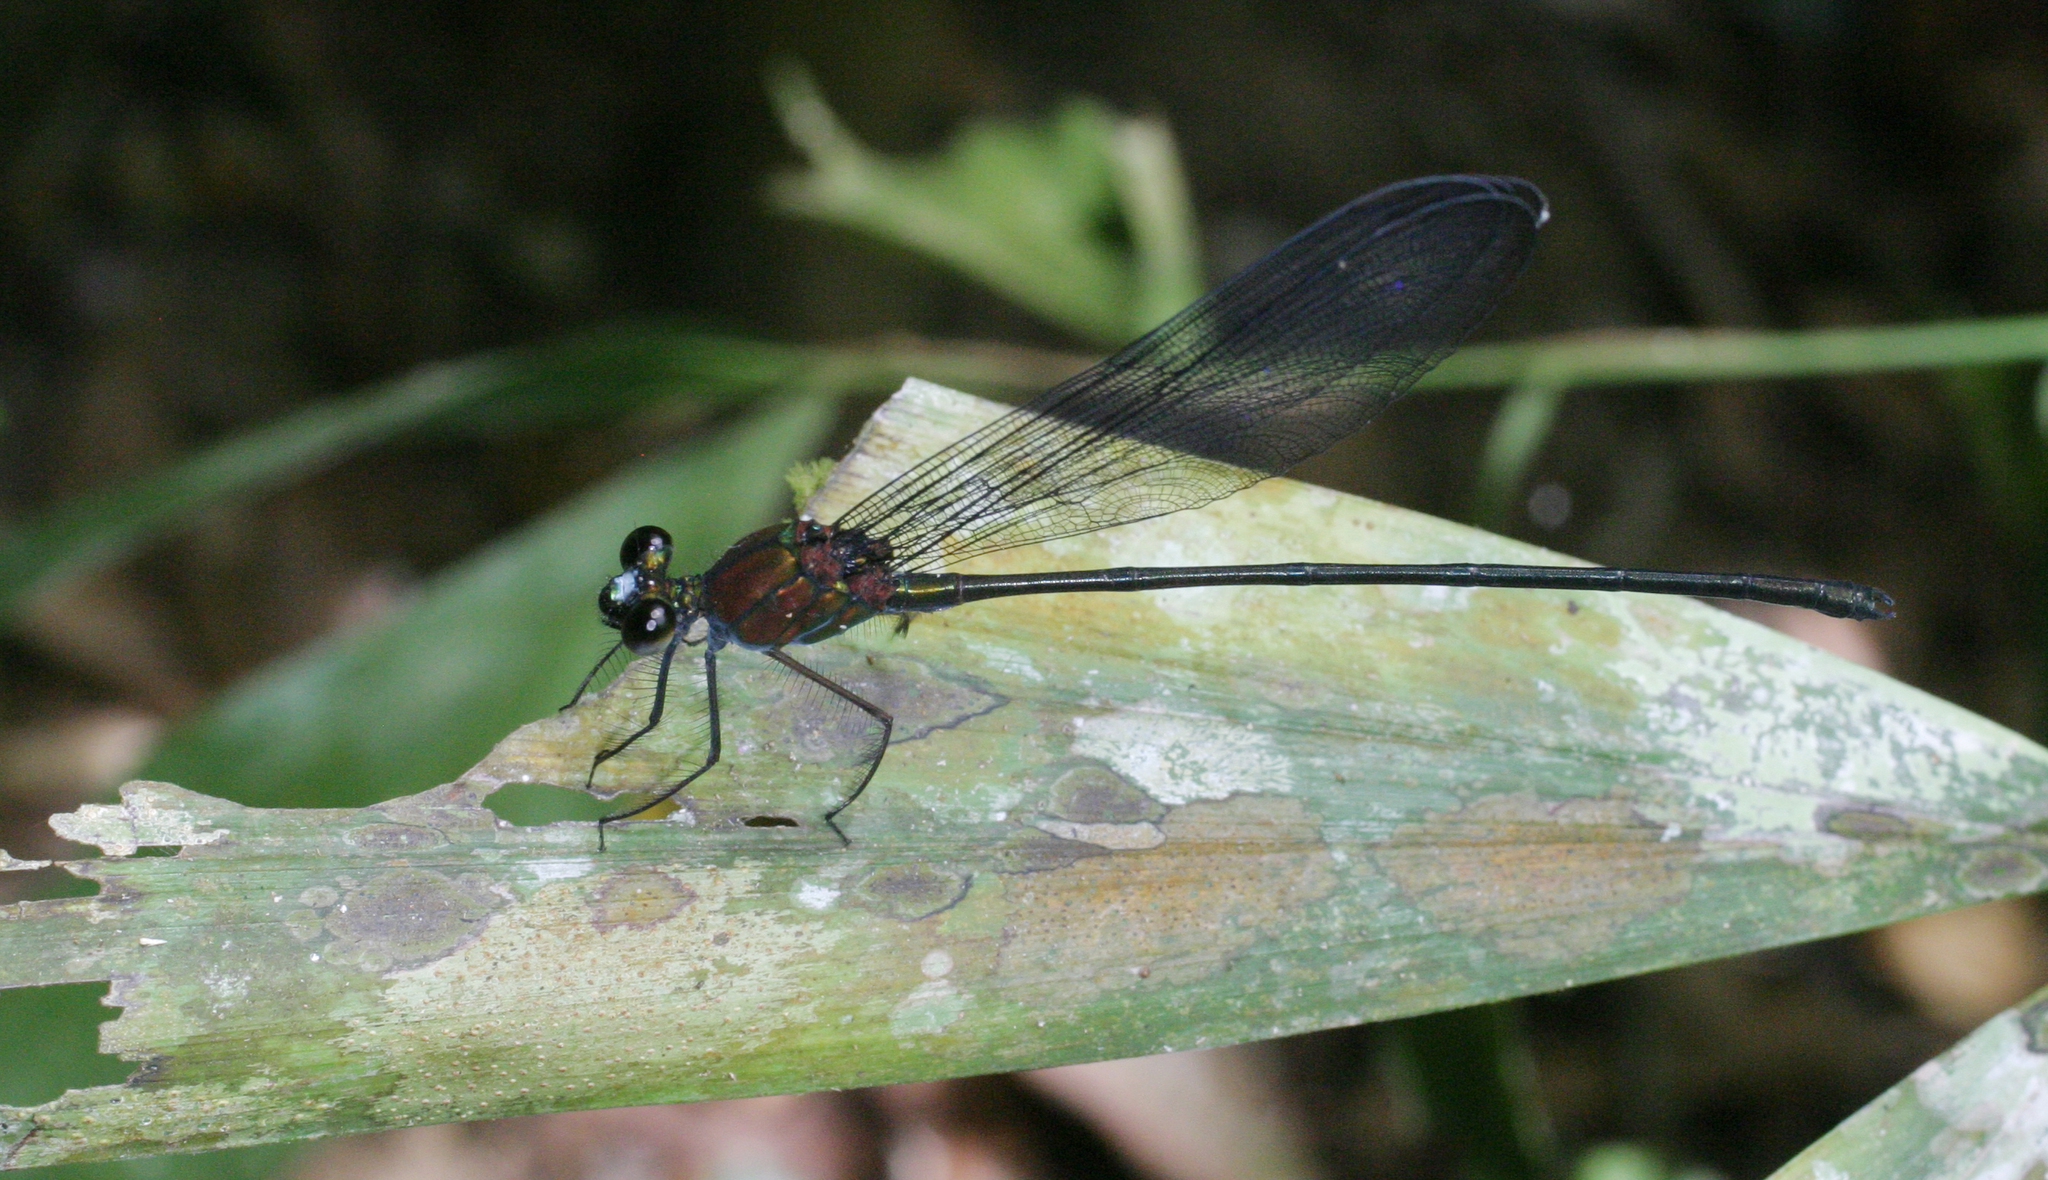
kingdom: Animalia
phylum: Arthropoda
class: Insecta
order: Odonata
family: Calopterygidae
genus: Echo
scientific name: Echo modesta
